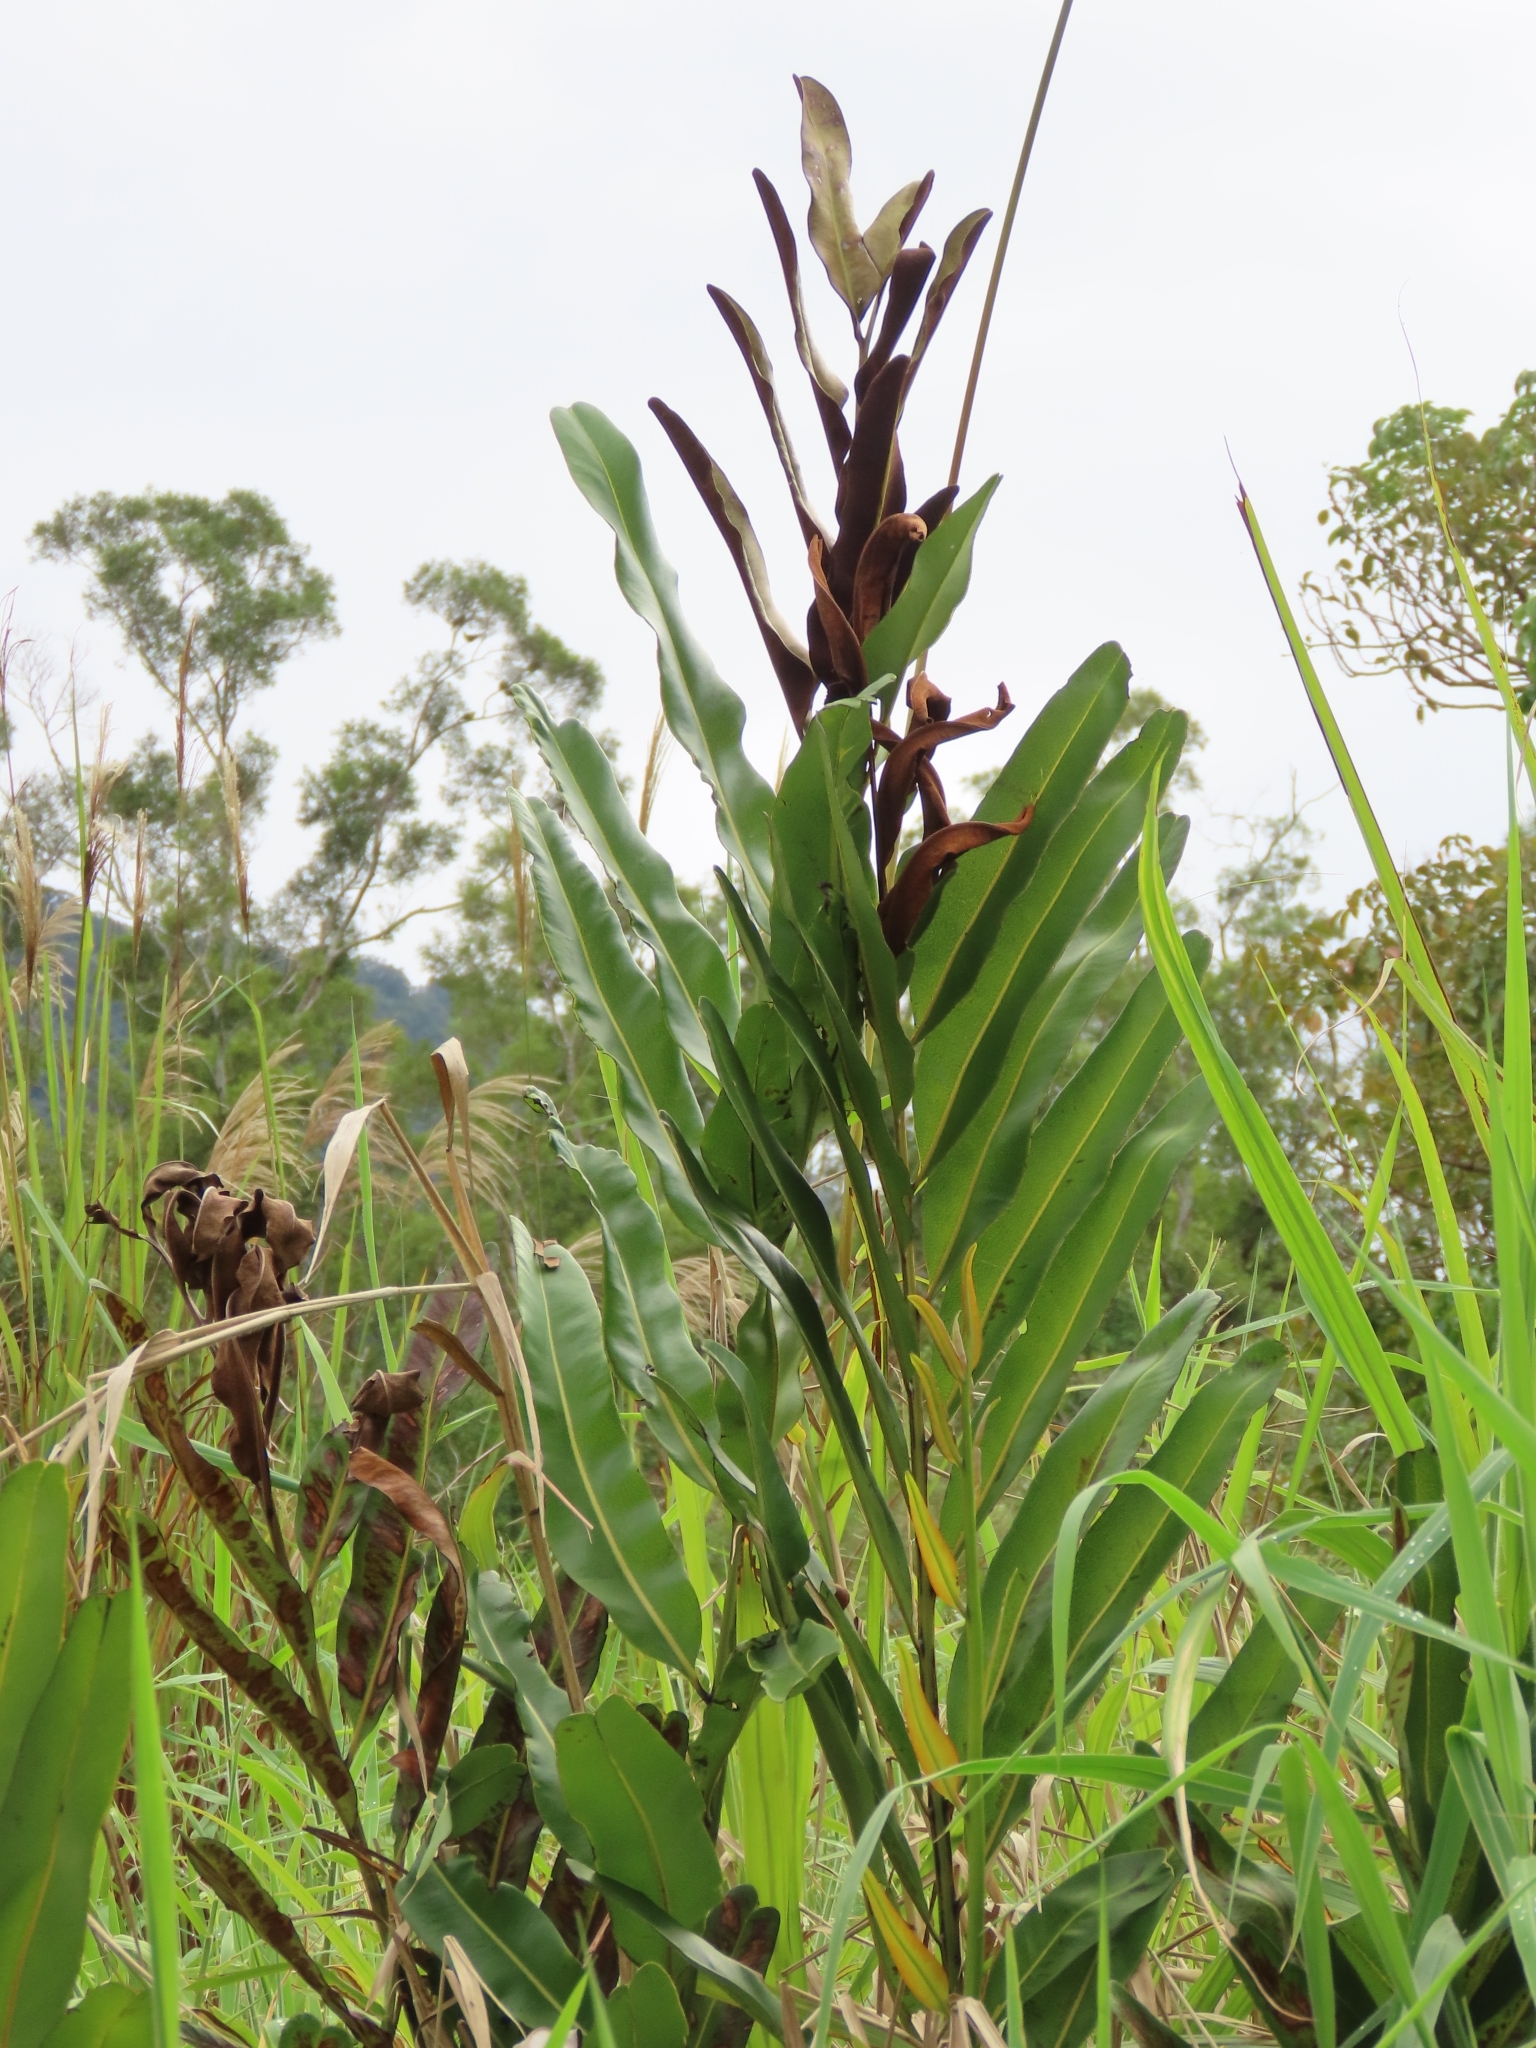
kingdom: Plantae
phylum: Tracheophyta
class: Polypodiopsida
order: Polypodiales
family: Pteridaceae
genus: Acrostichum
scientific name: Acrostichum aureum
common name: Leather fern
